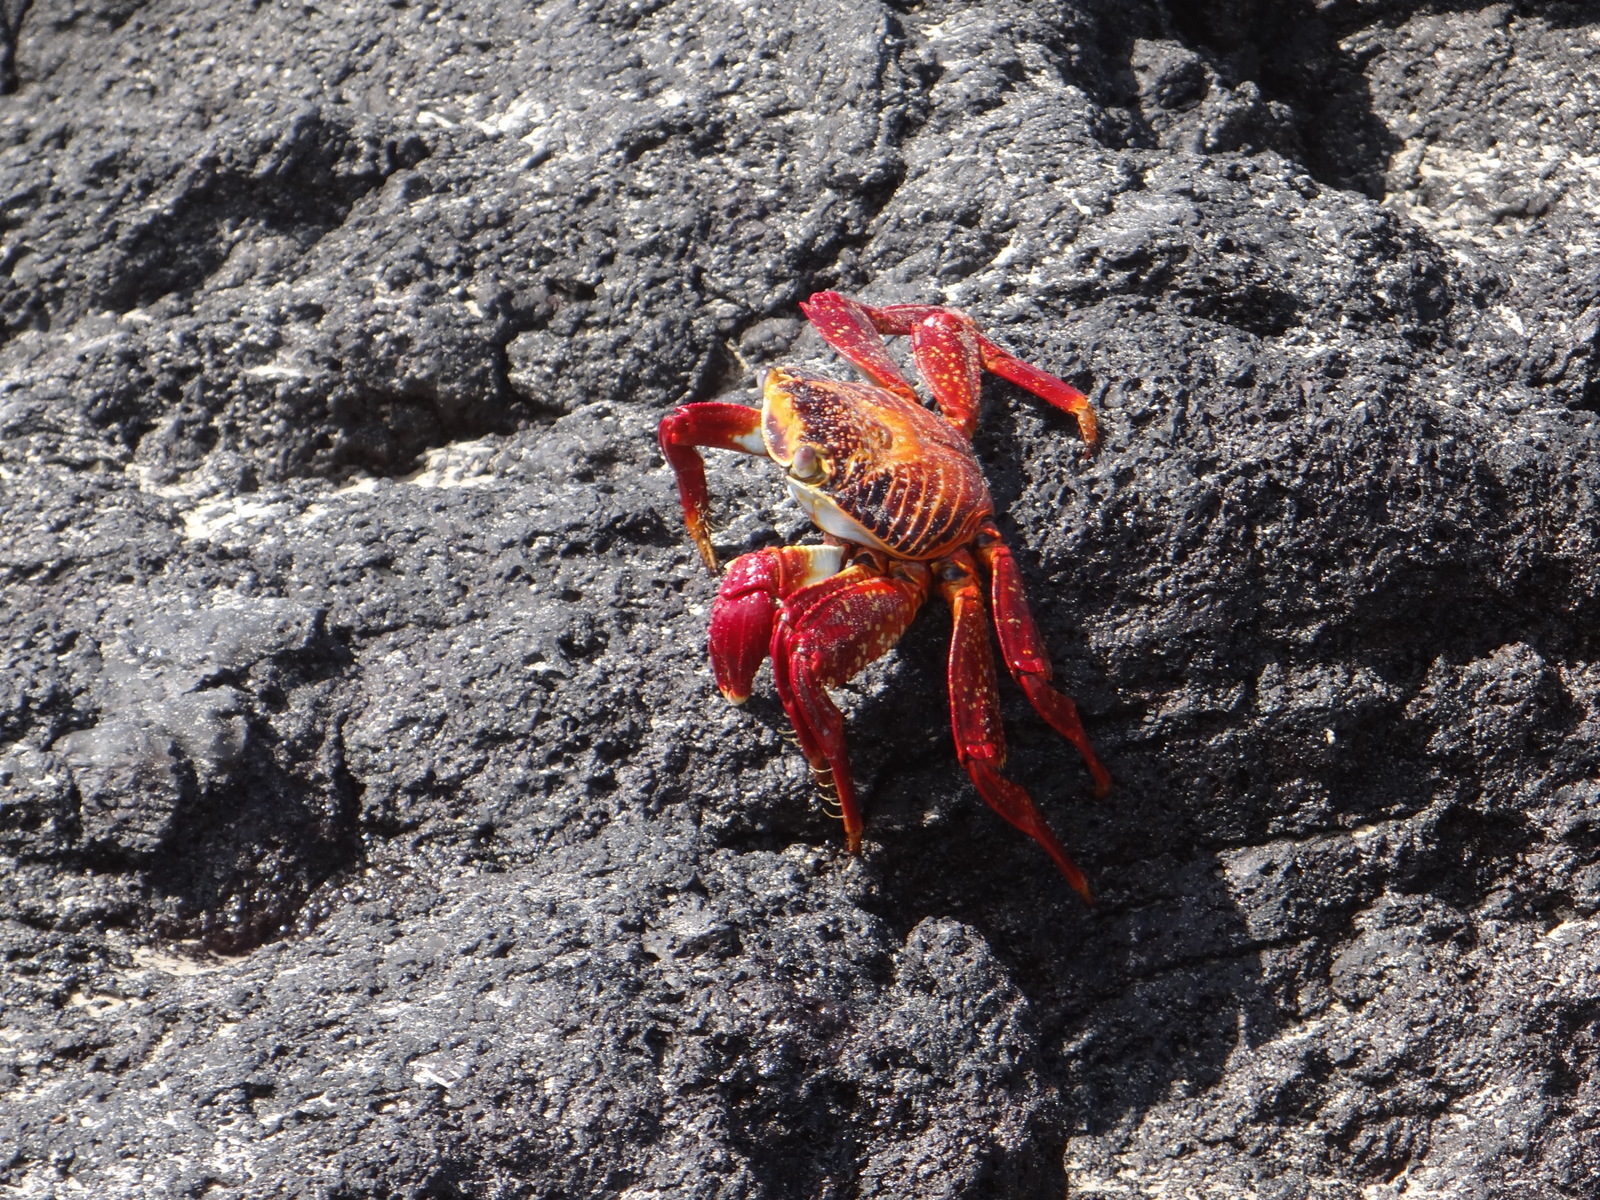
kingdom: Animalia
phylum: Arthropoda
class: Malacostraca
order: Decapoda
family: Grapsidae
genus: Grapsus
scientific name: Grapsus grapsus
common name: Sally lightfoot
